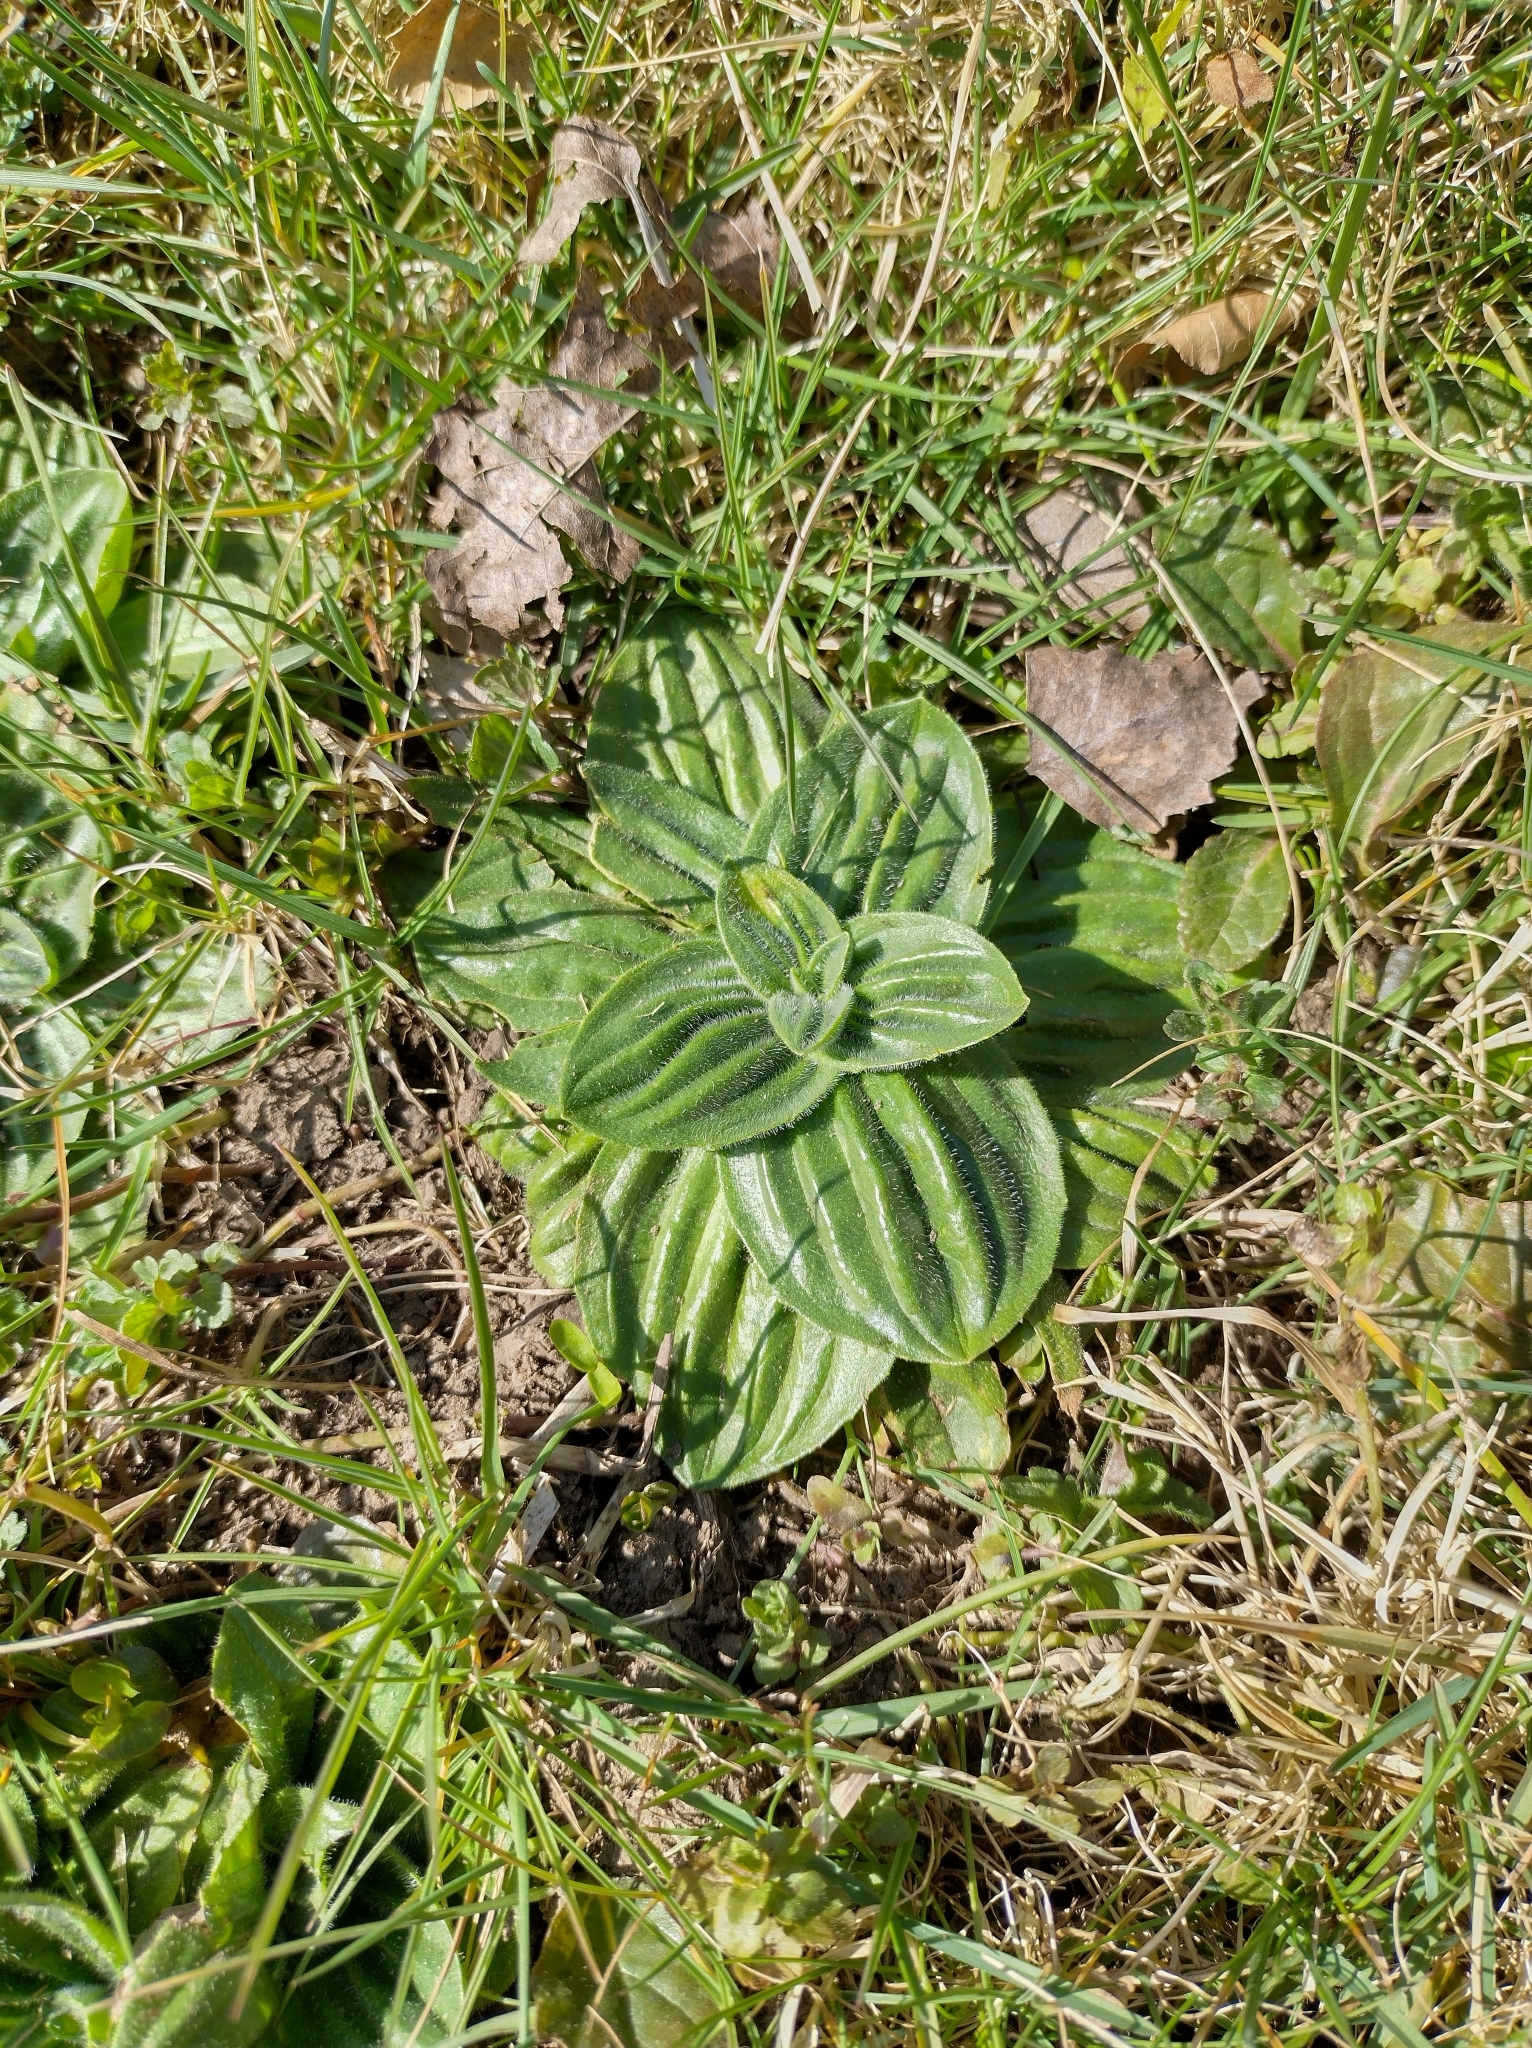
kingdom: Plantae
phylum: Tracheophyta
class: Magnoliopsida
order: Lamiales
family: Plantaginaceae
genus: Plantago
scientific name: Plantago media
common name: Hoary plantain
